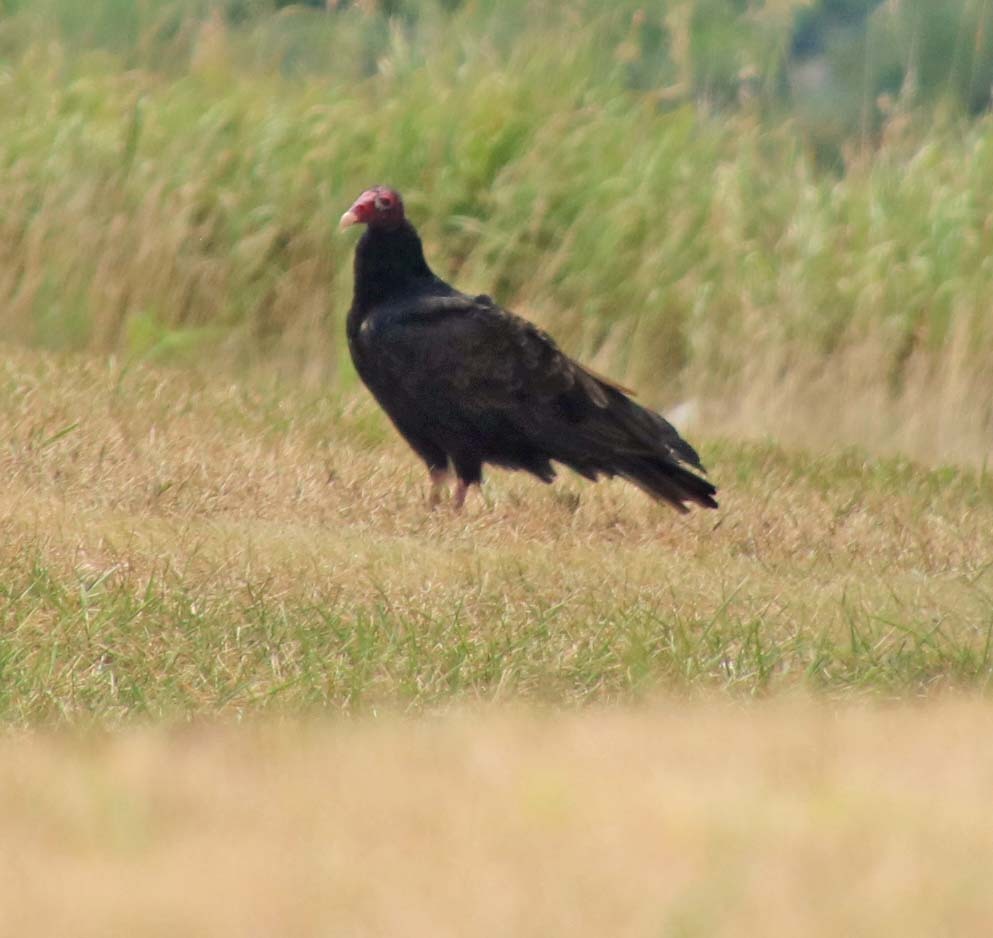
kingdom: Animalia
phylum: Chordata
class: Aves
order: Accipitriformes
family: Cathartidae
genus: Cathartes
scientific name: Cathartes aura
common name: Turkey vulture
